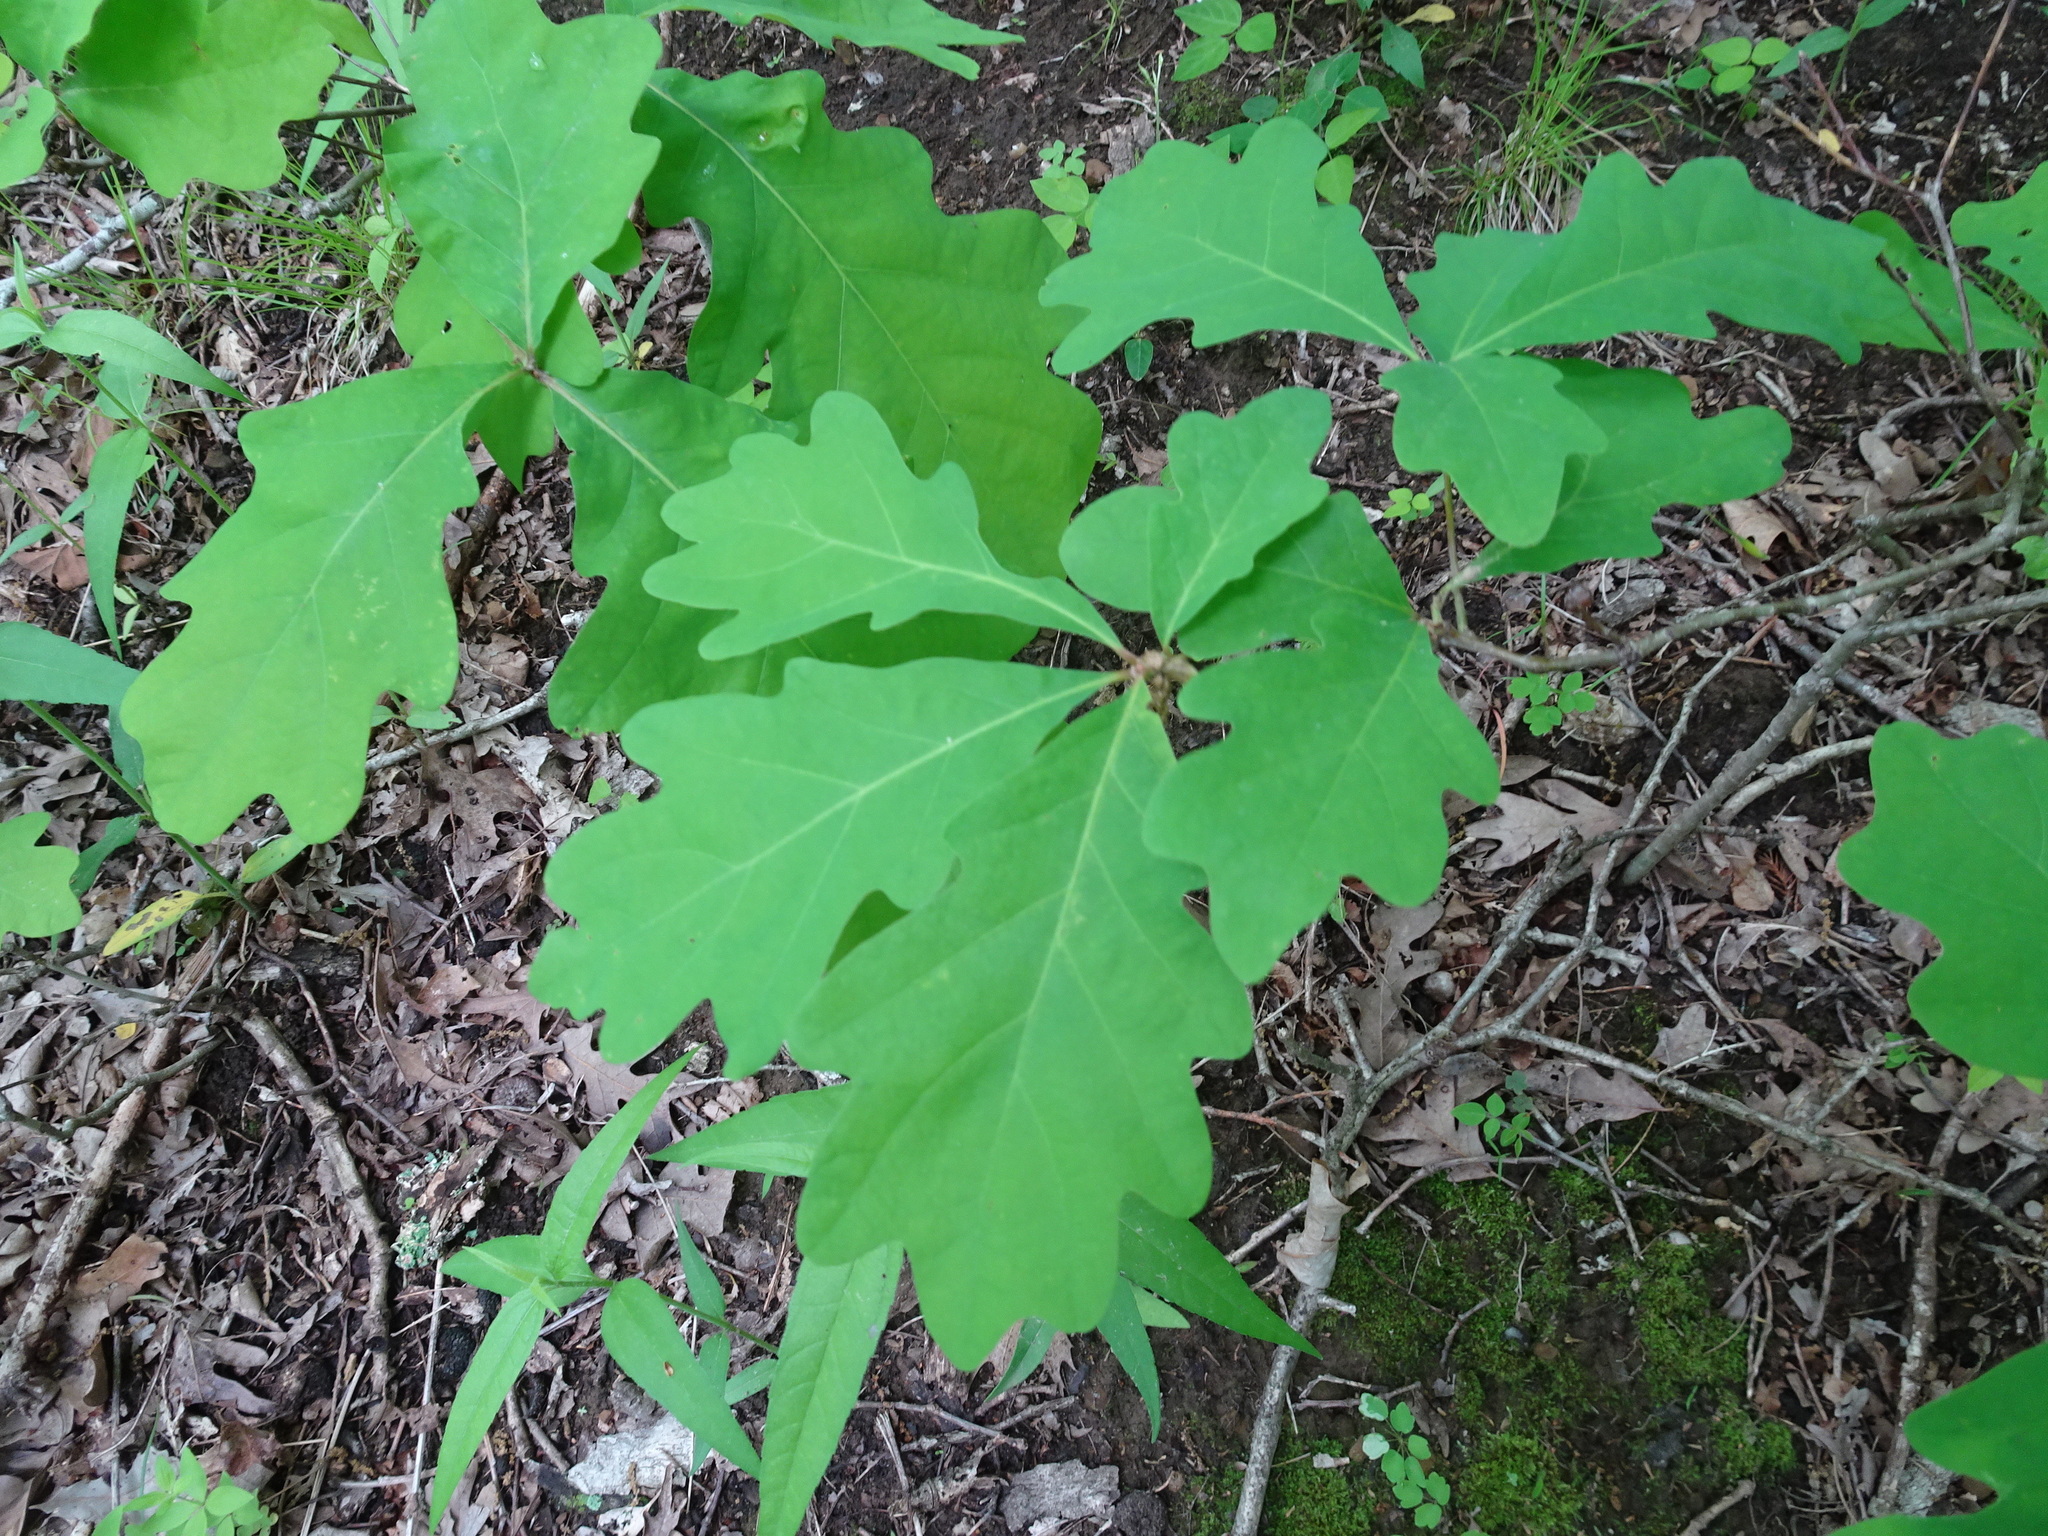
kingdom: Plantae
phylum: Tracheophyta
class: Magnoliopsida
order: Fagales
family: Fagaceae
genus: Quercus
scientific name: Quercus alba
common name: White oak
